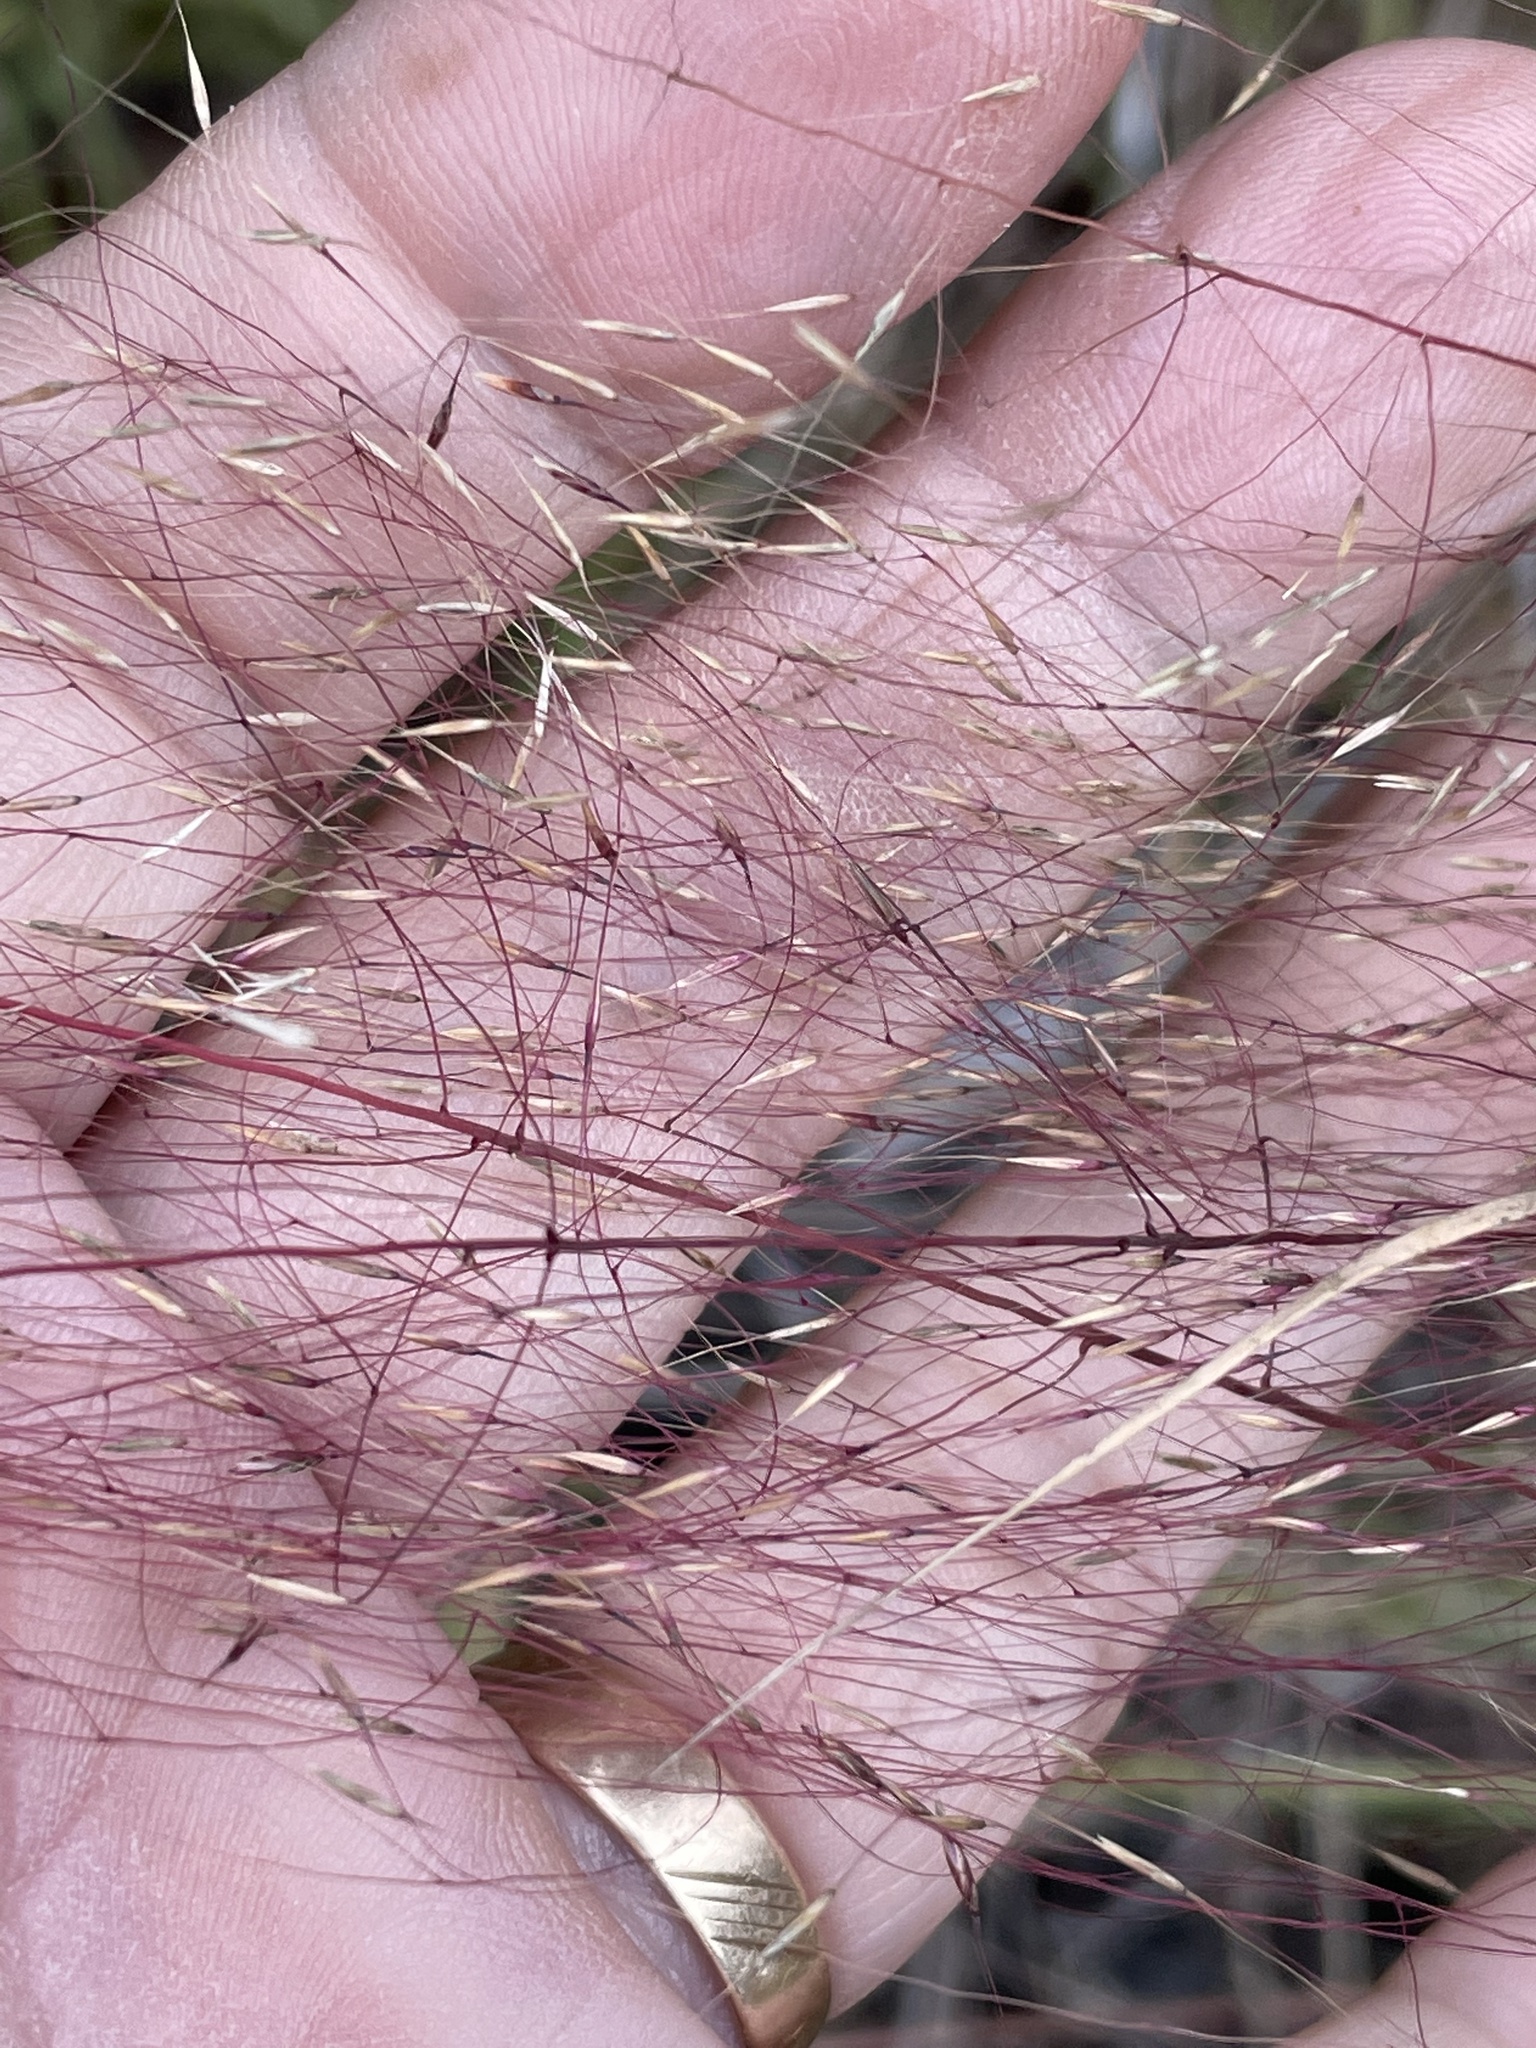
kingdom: Plantae
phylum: Tracheophyta
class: Liliopsida
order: Poales
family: Poaceae
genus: Muhlenbergia
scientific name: Muhlenbergia capillaris
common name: Purple grass
